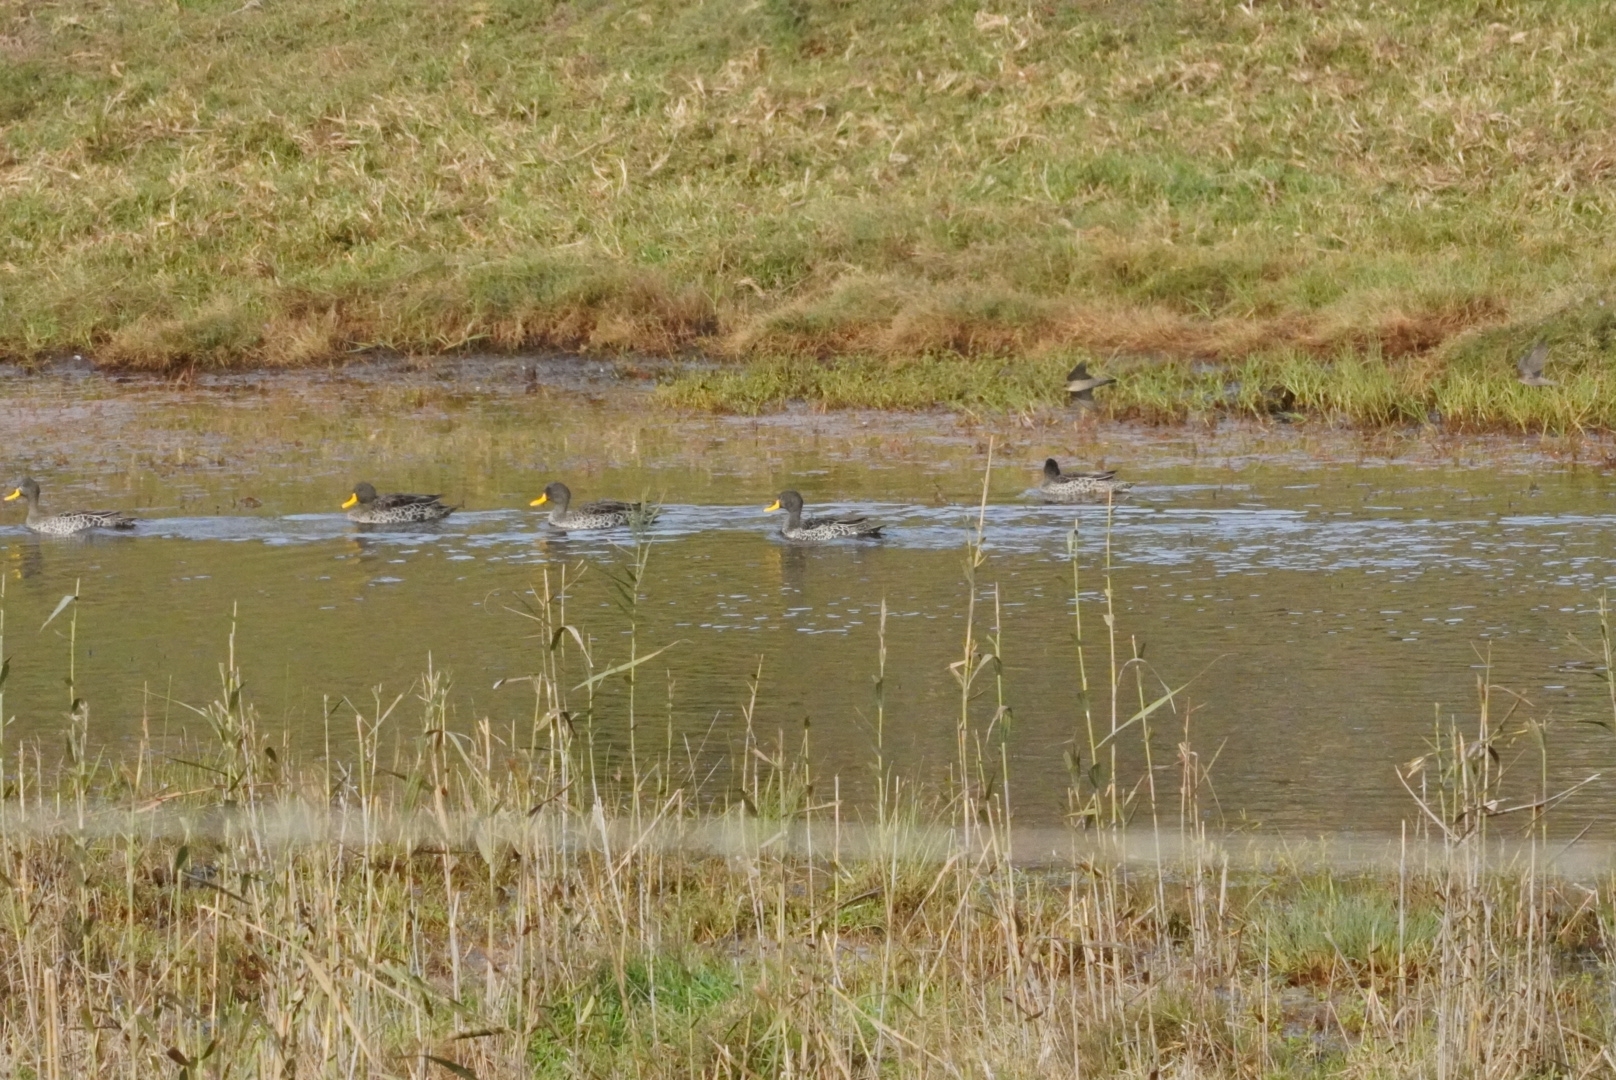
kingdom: Animalia
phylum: Chordata
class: Aves
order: Anseriformes
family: Anatidae
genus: Anas
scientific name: Anas undulata
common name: Yellow-billed duck
